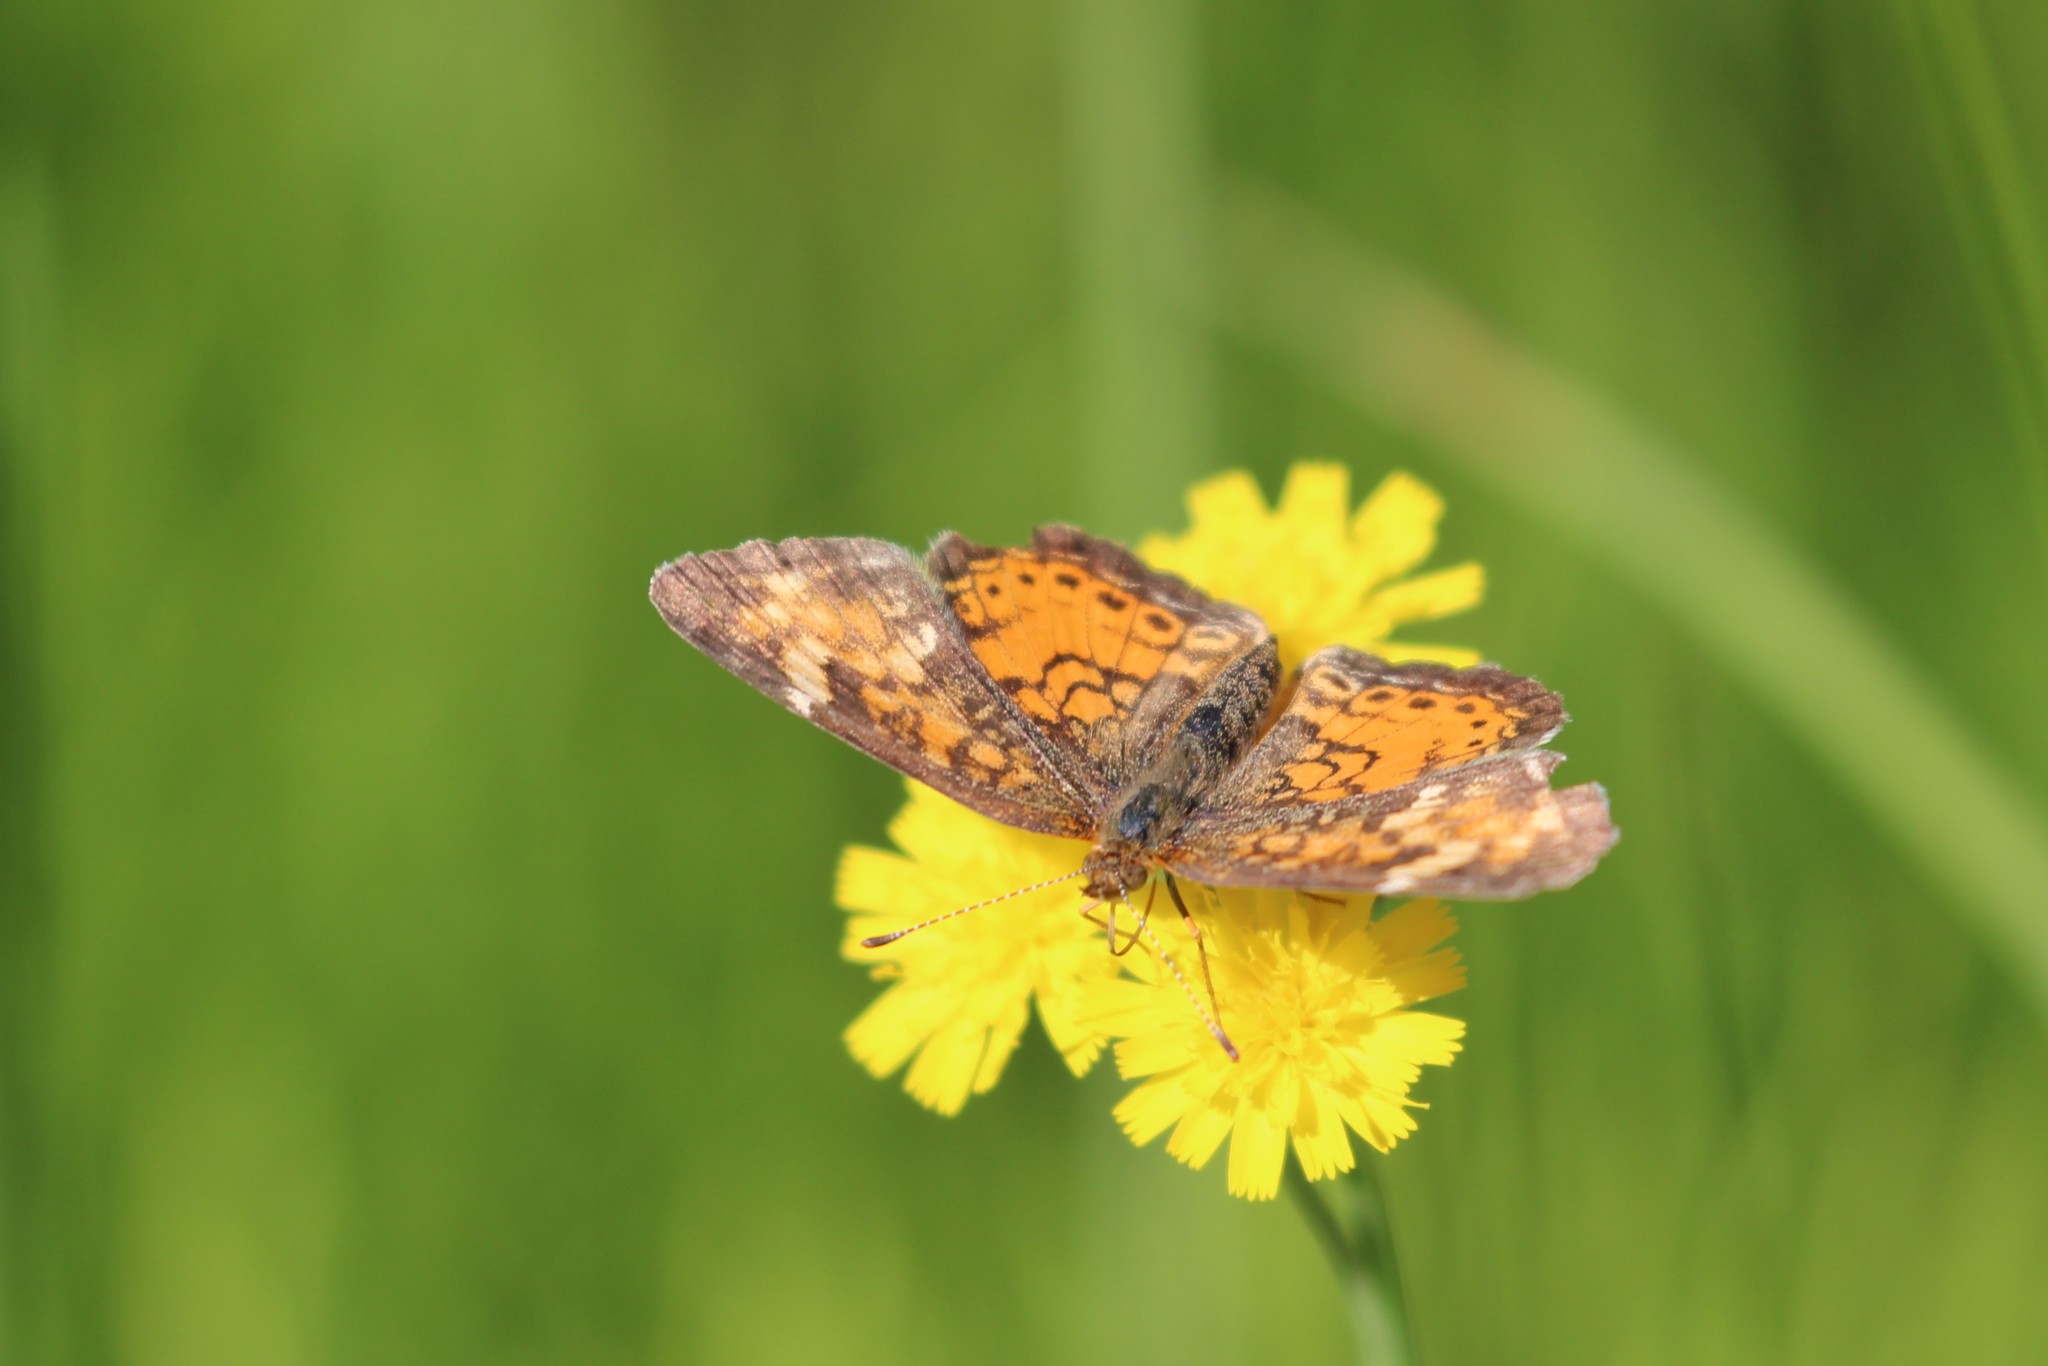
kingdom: Animalia
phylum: Arthropoda
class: Insecta
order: Lepidoptera
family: Nymphalidae
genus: Phyciodes
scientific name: Phyciodes tharos
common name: Pearl crescent
